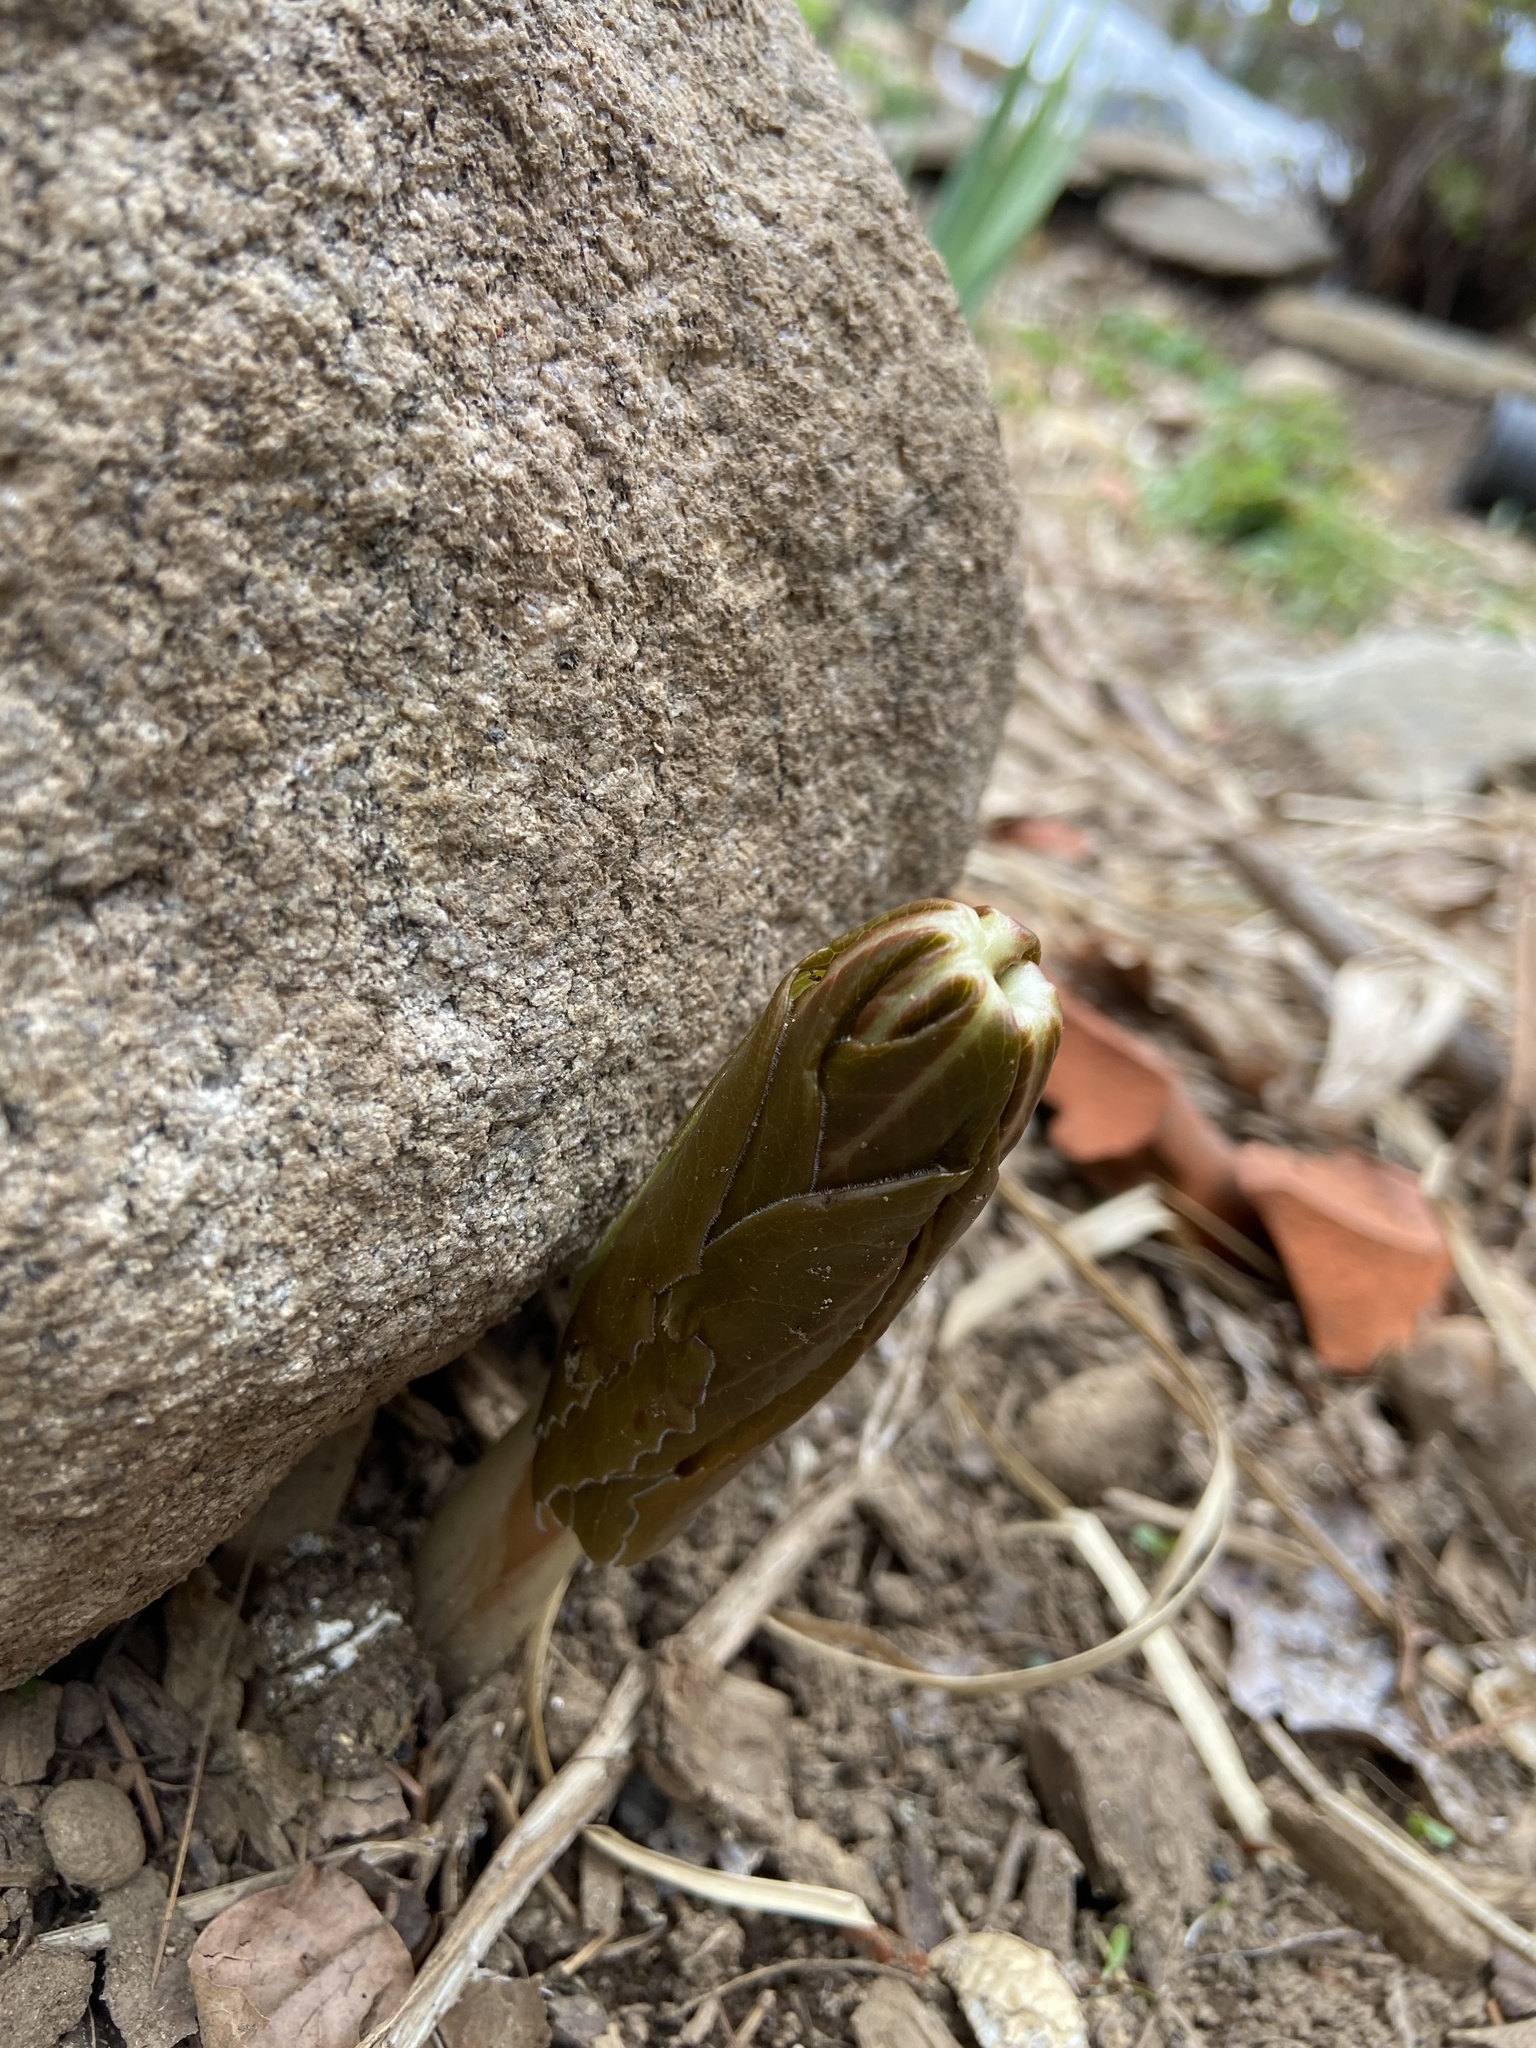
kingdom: Plantae
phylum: Tracheophyta
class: Magnoliopsida
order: Ranunculales
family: Berberidaceae
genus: Podophyllum
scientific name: Podophyllum peltatum
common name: Wild mandrake
